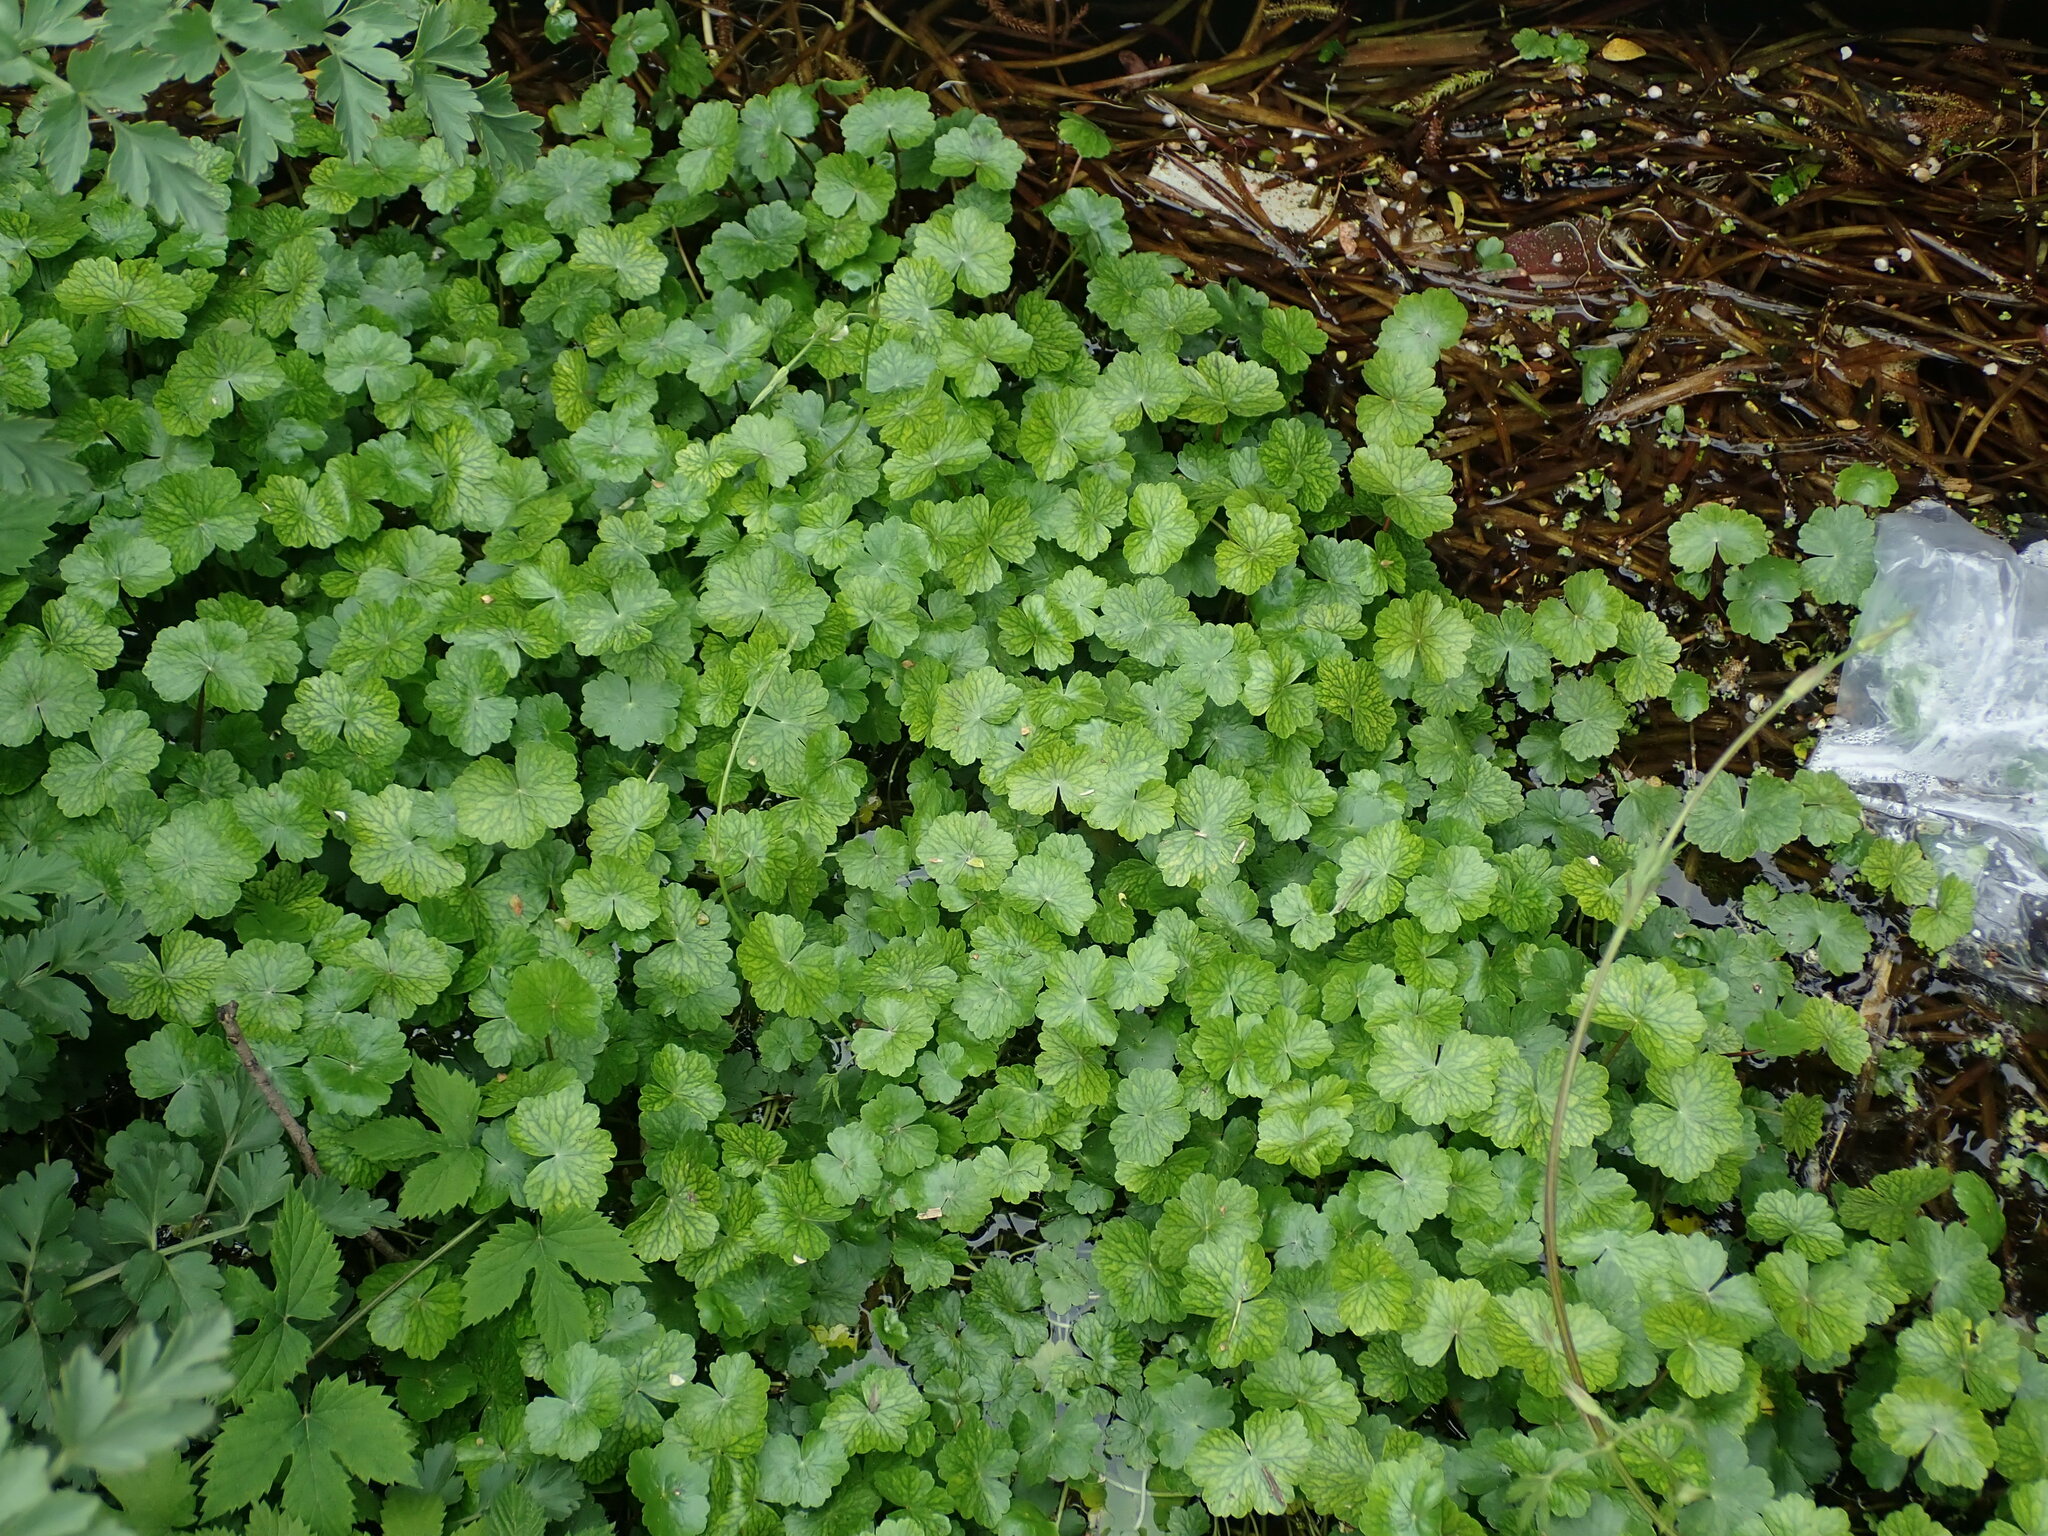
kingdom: Plantae
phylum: Tracheophyta
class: Magnoliopsida
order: Apiales
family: Araliaceae
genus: Hydrocotyle
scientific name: Hydrocotyle ranunculoides
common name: Floating pennywort
